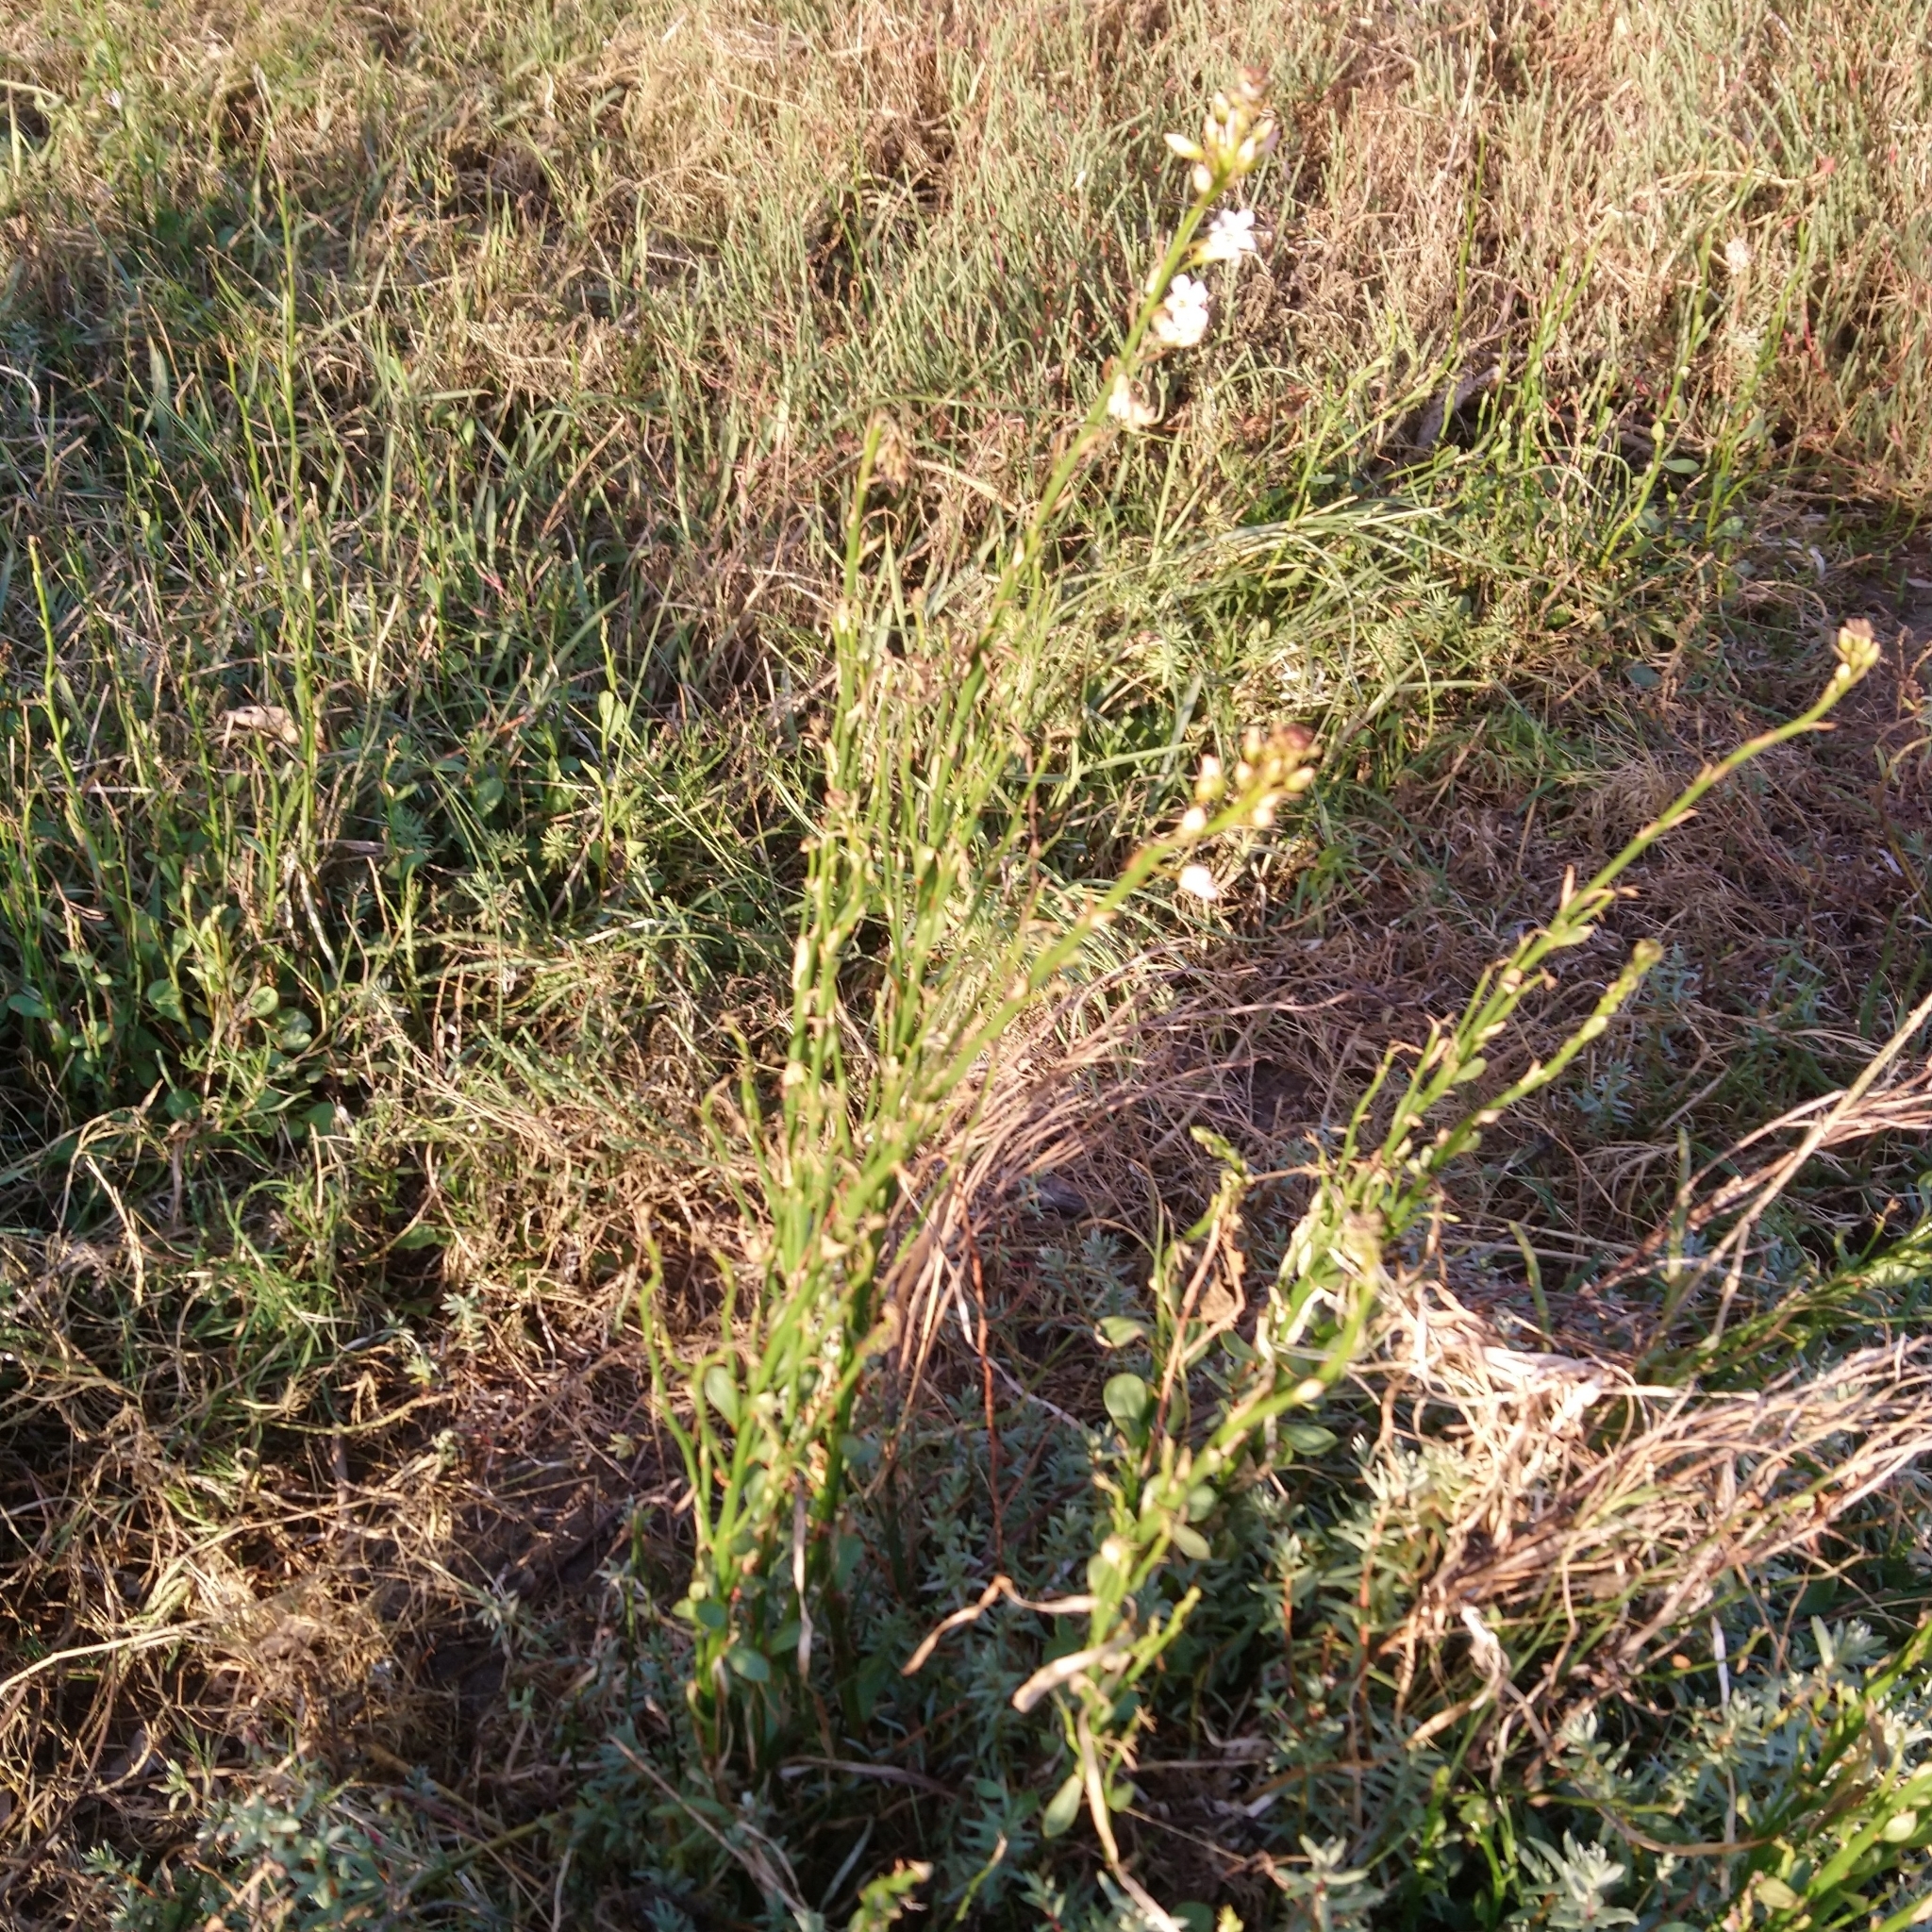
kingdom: Plantae
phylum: Tracheophyta
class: Magnoliopsida
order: Ericales
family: Primulaceae
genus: Samolus
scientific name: Samolus porosus
